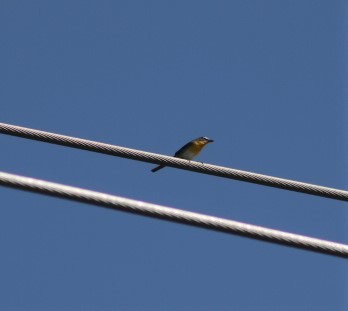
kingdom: Animalia
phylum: Chordata
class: Aves
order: Passeriformes
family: Parulidae
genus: Icteria
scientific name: Icteria virens
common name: Yellow-breasted chat
